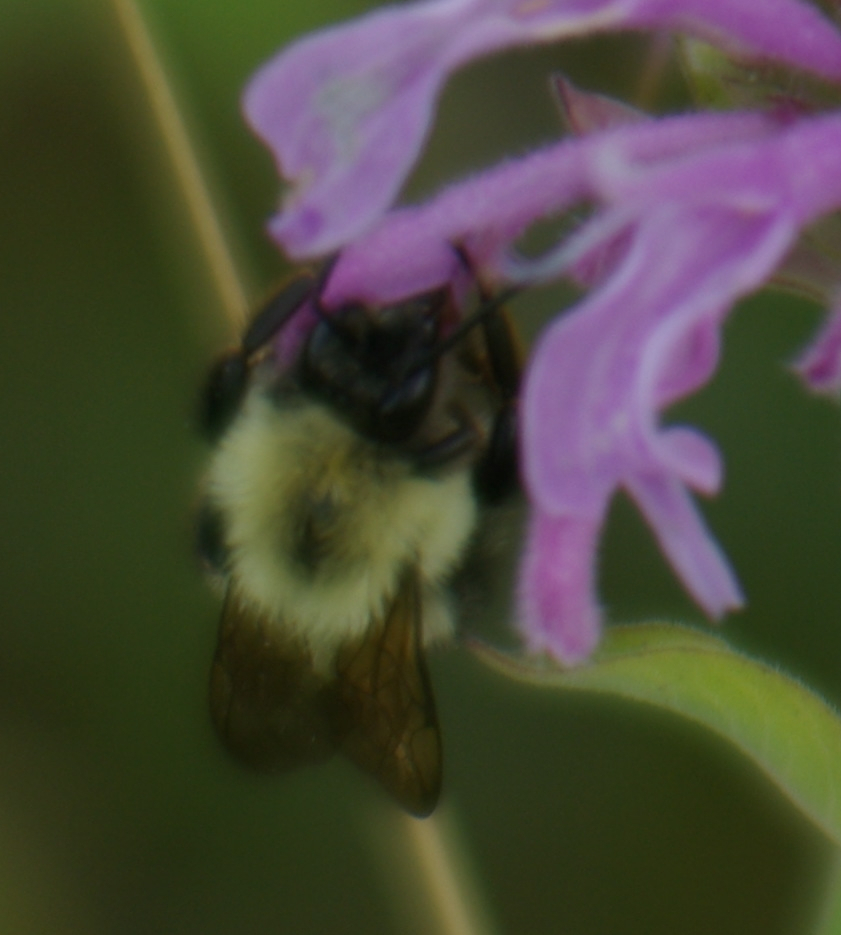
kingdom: Animalia
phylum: Arthropoda
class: Insecta
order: Hymenoptera
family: Apidae
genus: Bombus
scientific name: Bombus bimaculatus
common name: Two-spotted bumble bee
